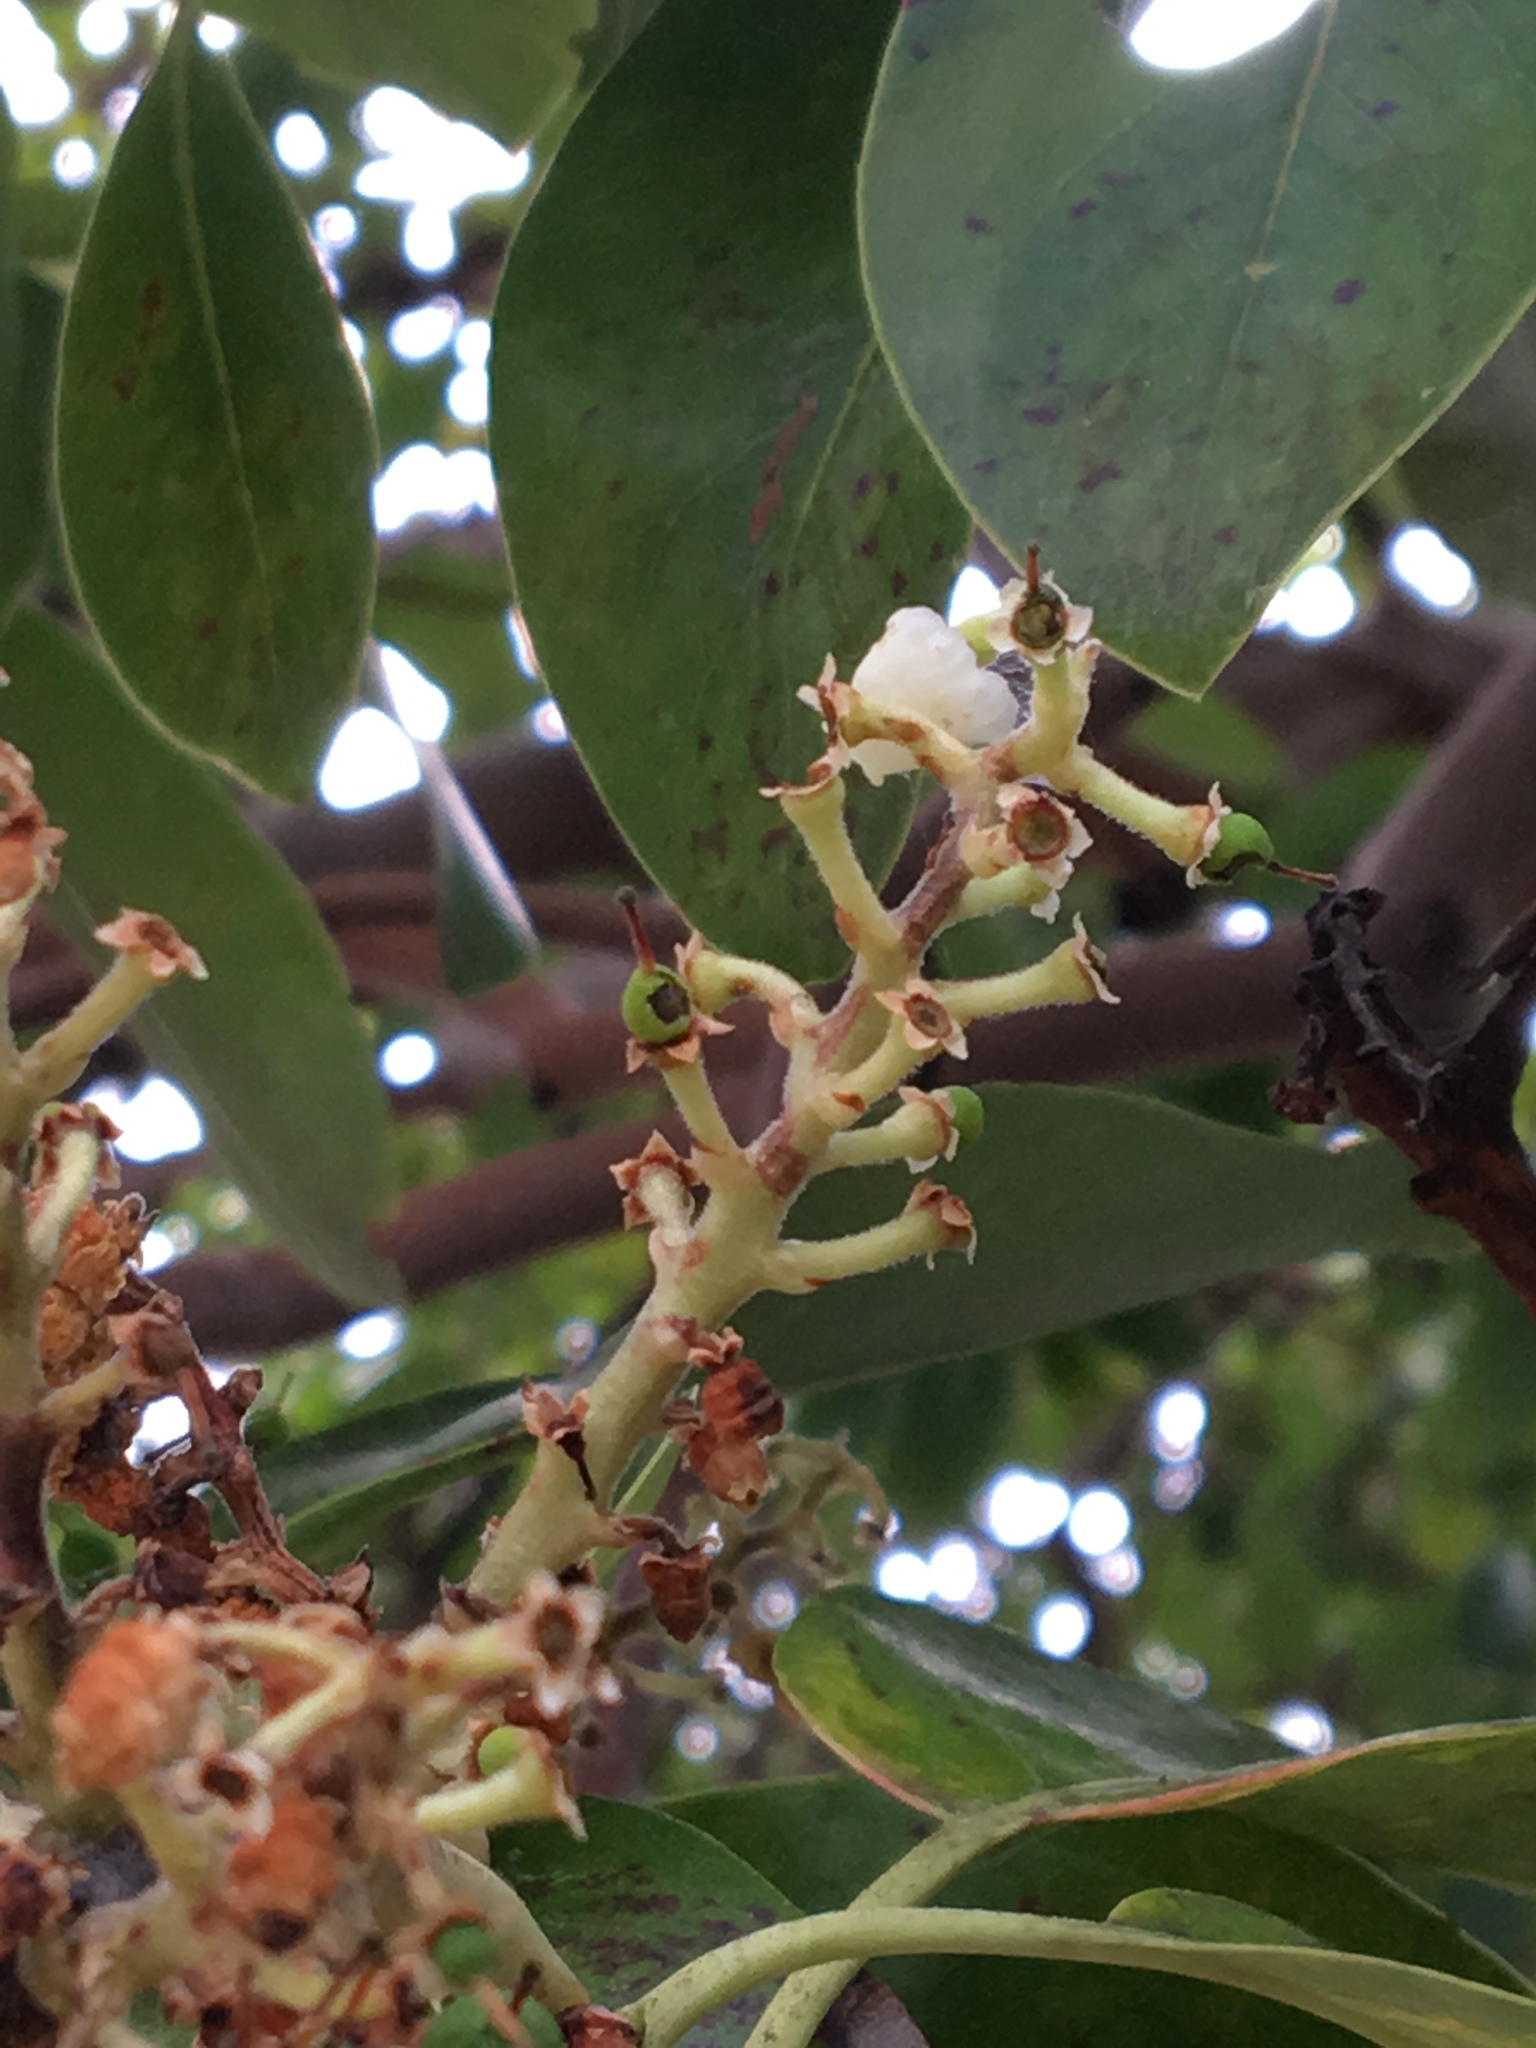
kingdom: Plantae
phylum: Tracheophyta
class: Magnoliopsida
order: Ericales
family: Ericaceae
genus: Arbutus
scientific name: Arbutus menziesii
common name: Pacific madrone
